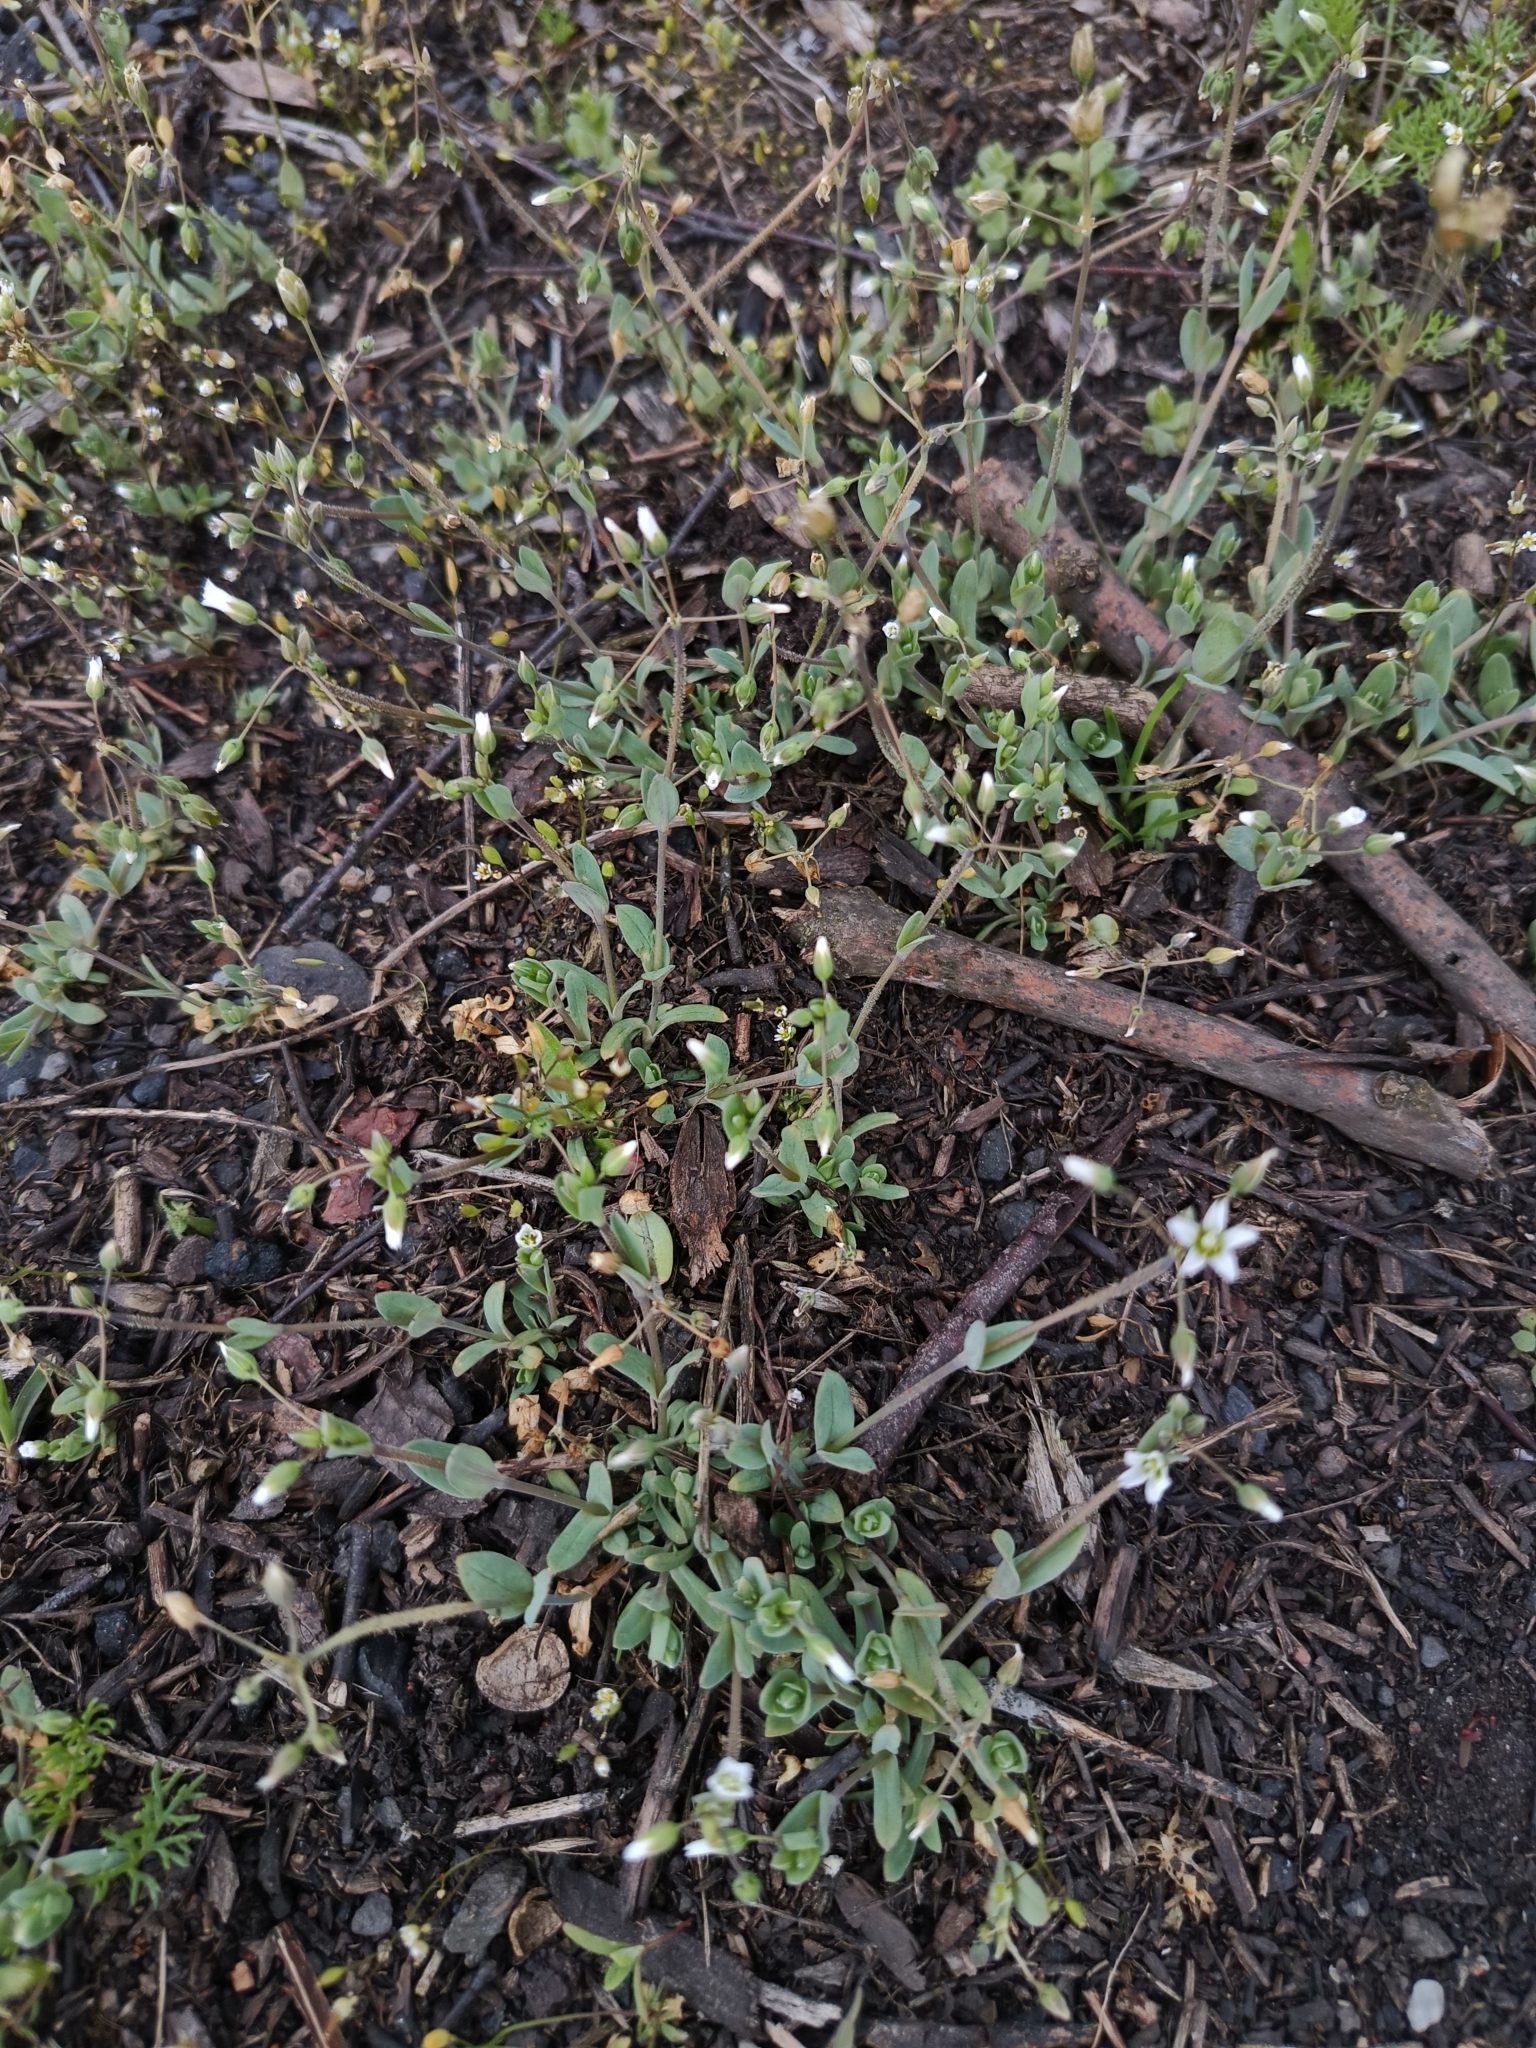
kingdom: Plantae
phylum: Tracheophyta
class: Magnoliopsida
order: Caryophyllales
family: Caryophyllaceae
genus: Holosteum
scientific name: Holosteum umbellatum
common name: Jagged chickweed
